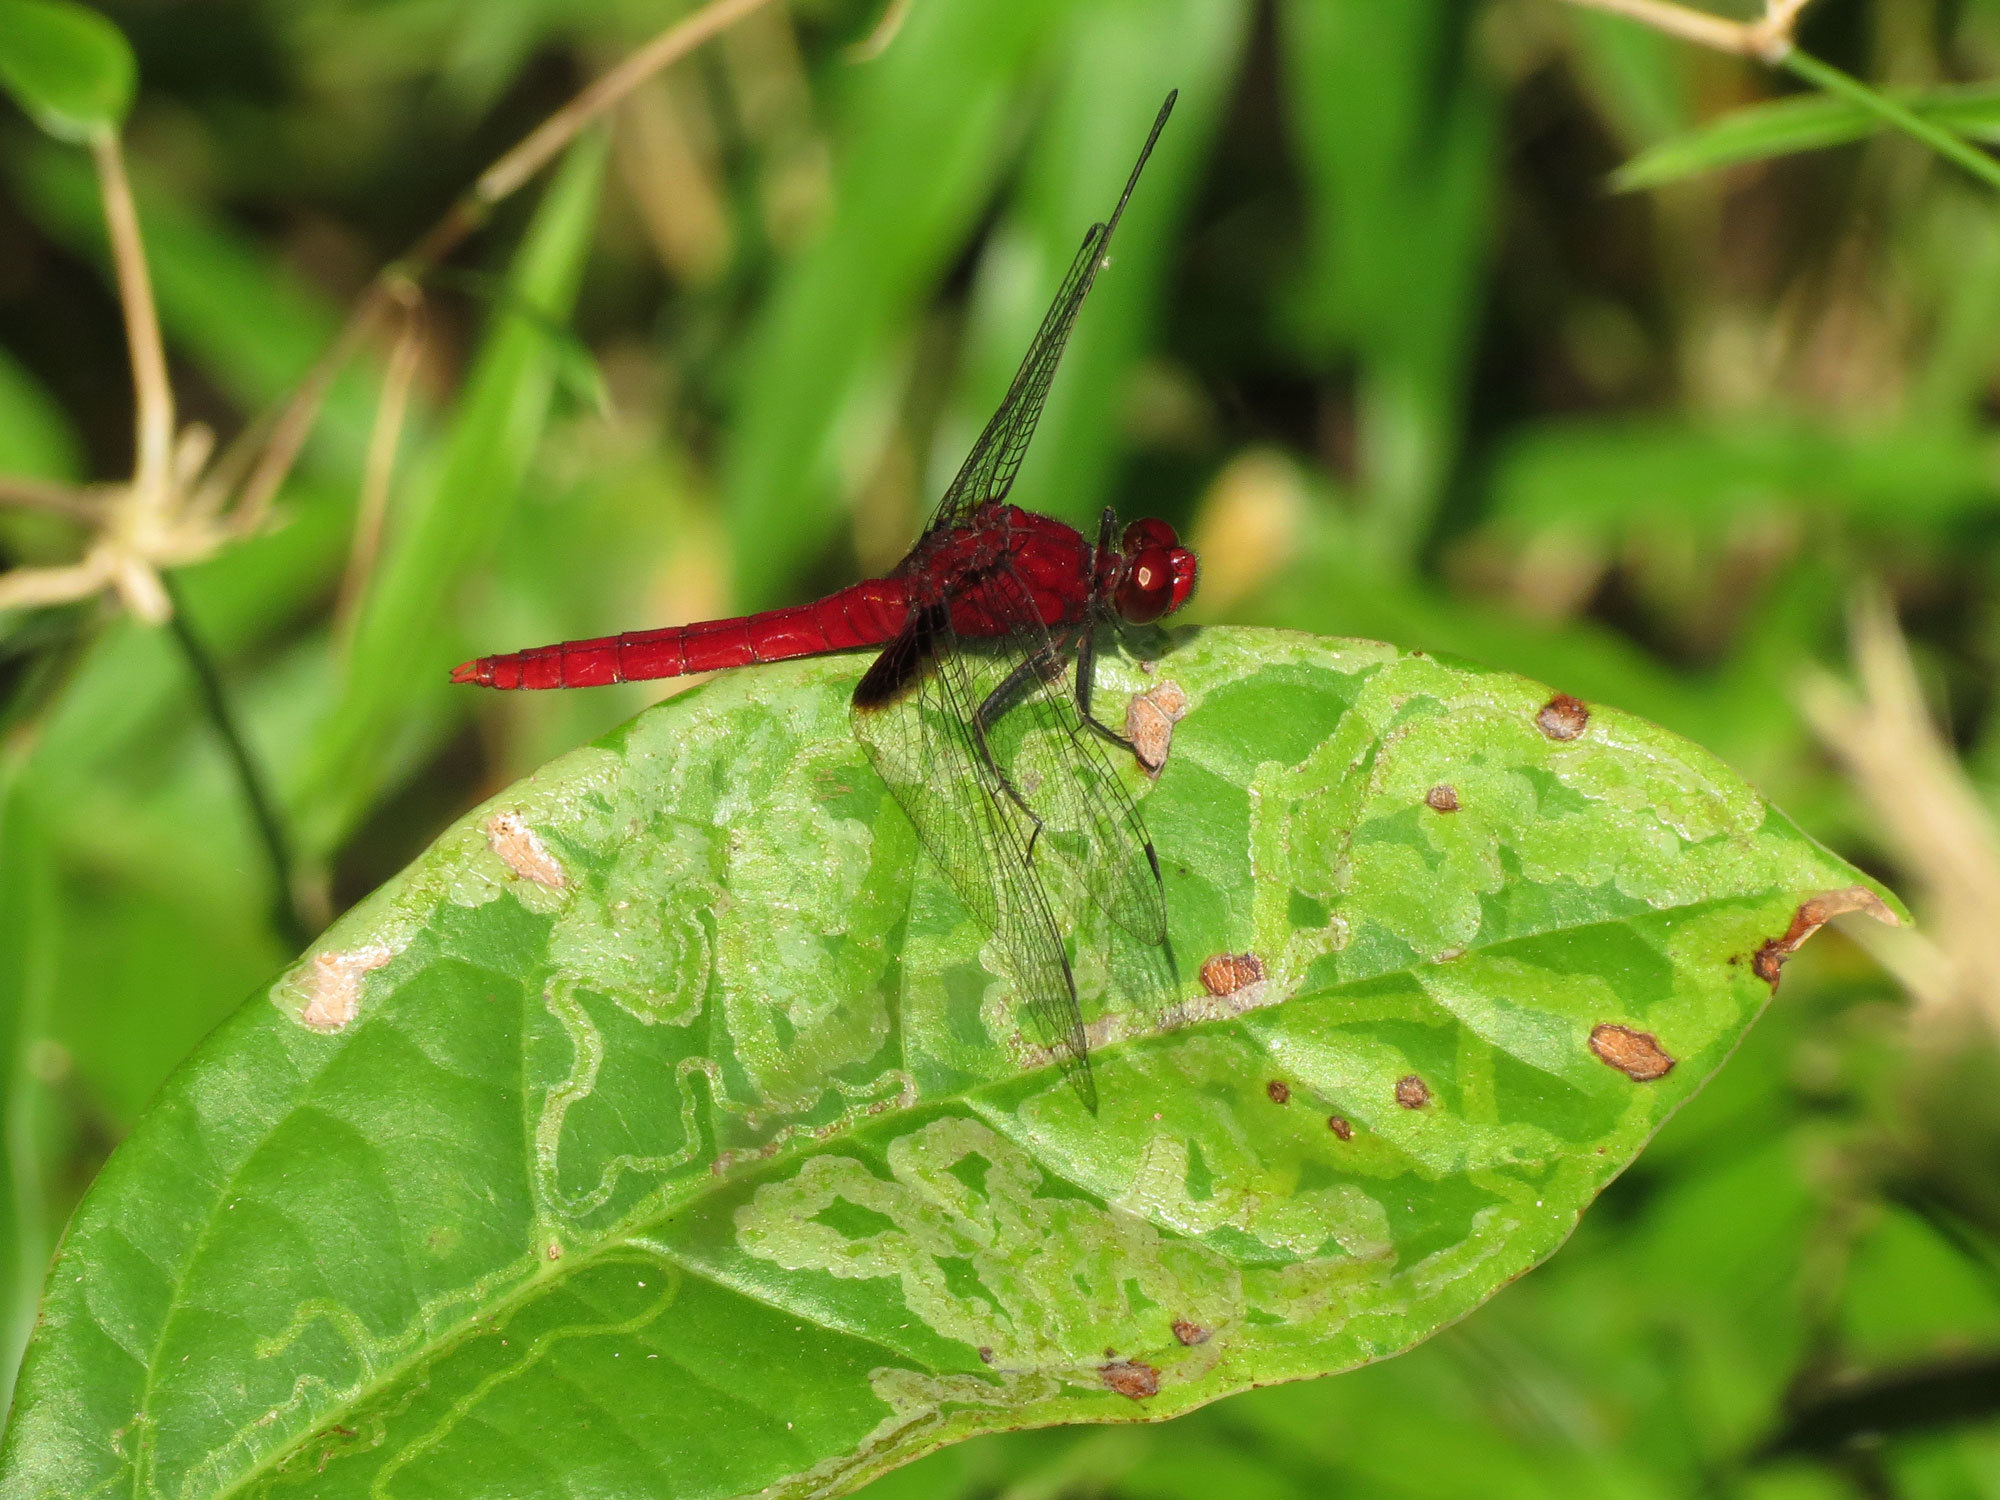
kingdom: Animalia
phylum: Arthropoda
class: Insecta
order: Odonata
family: Libellulidae
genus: Erythemis
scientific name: Erythemis mithroides
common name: Claret pondhawk
